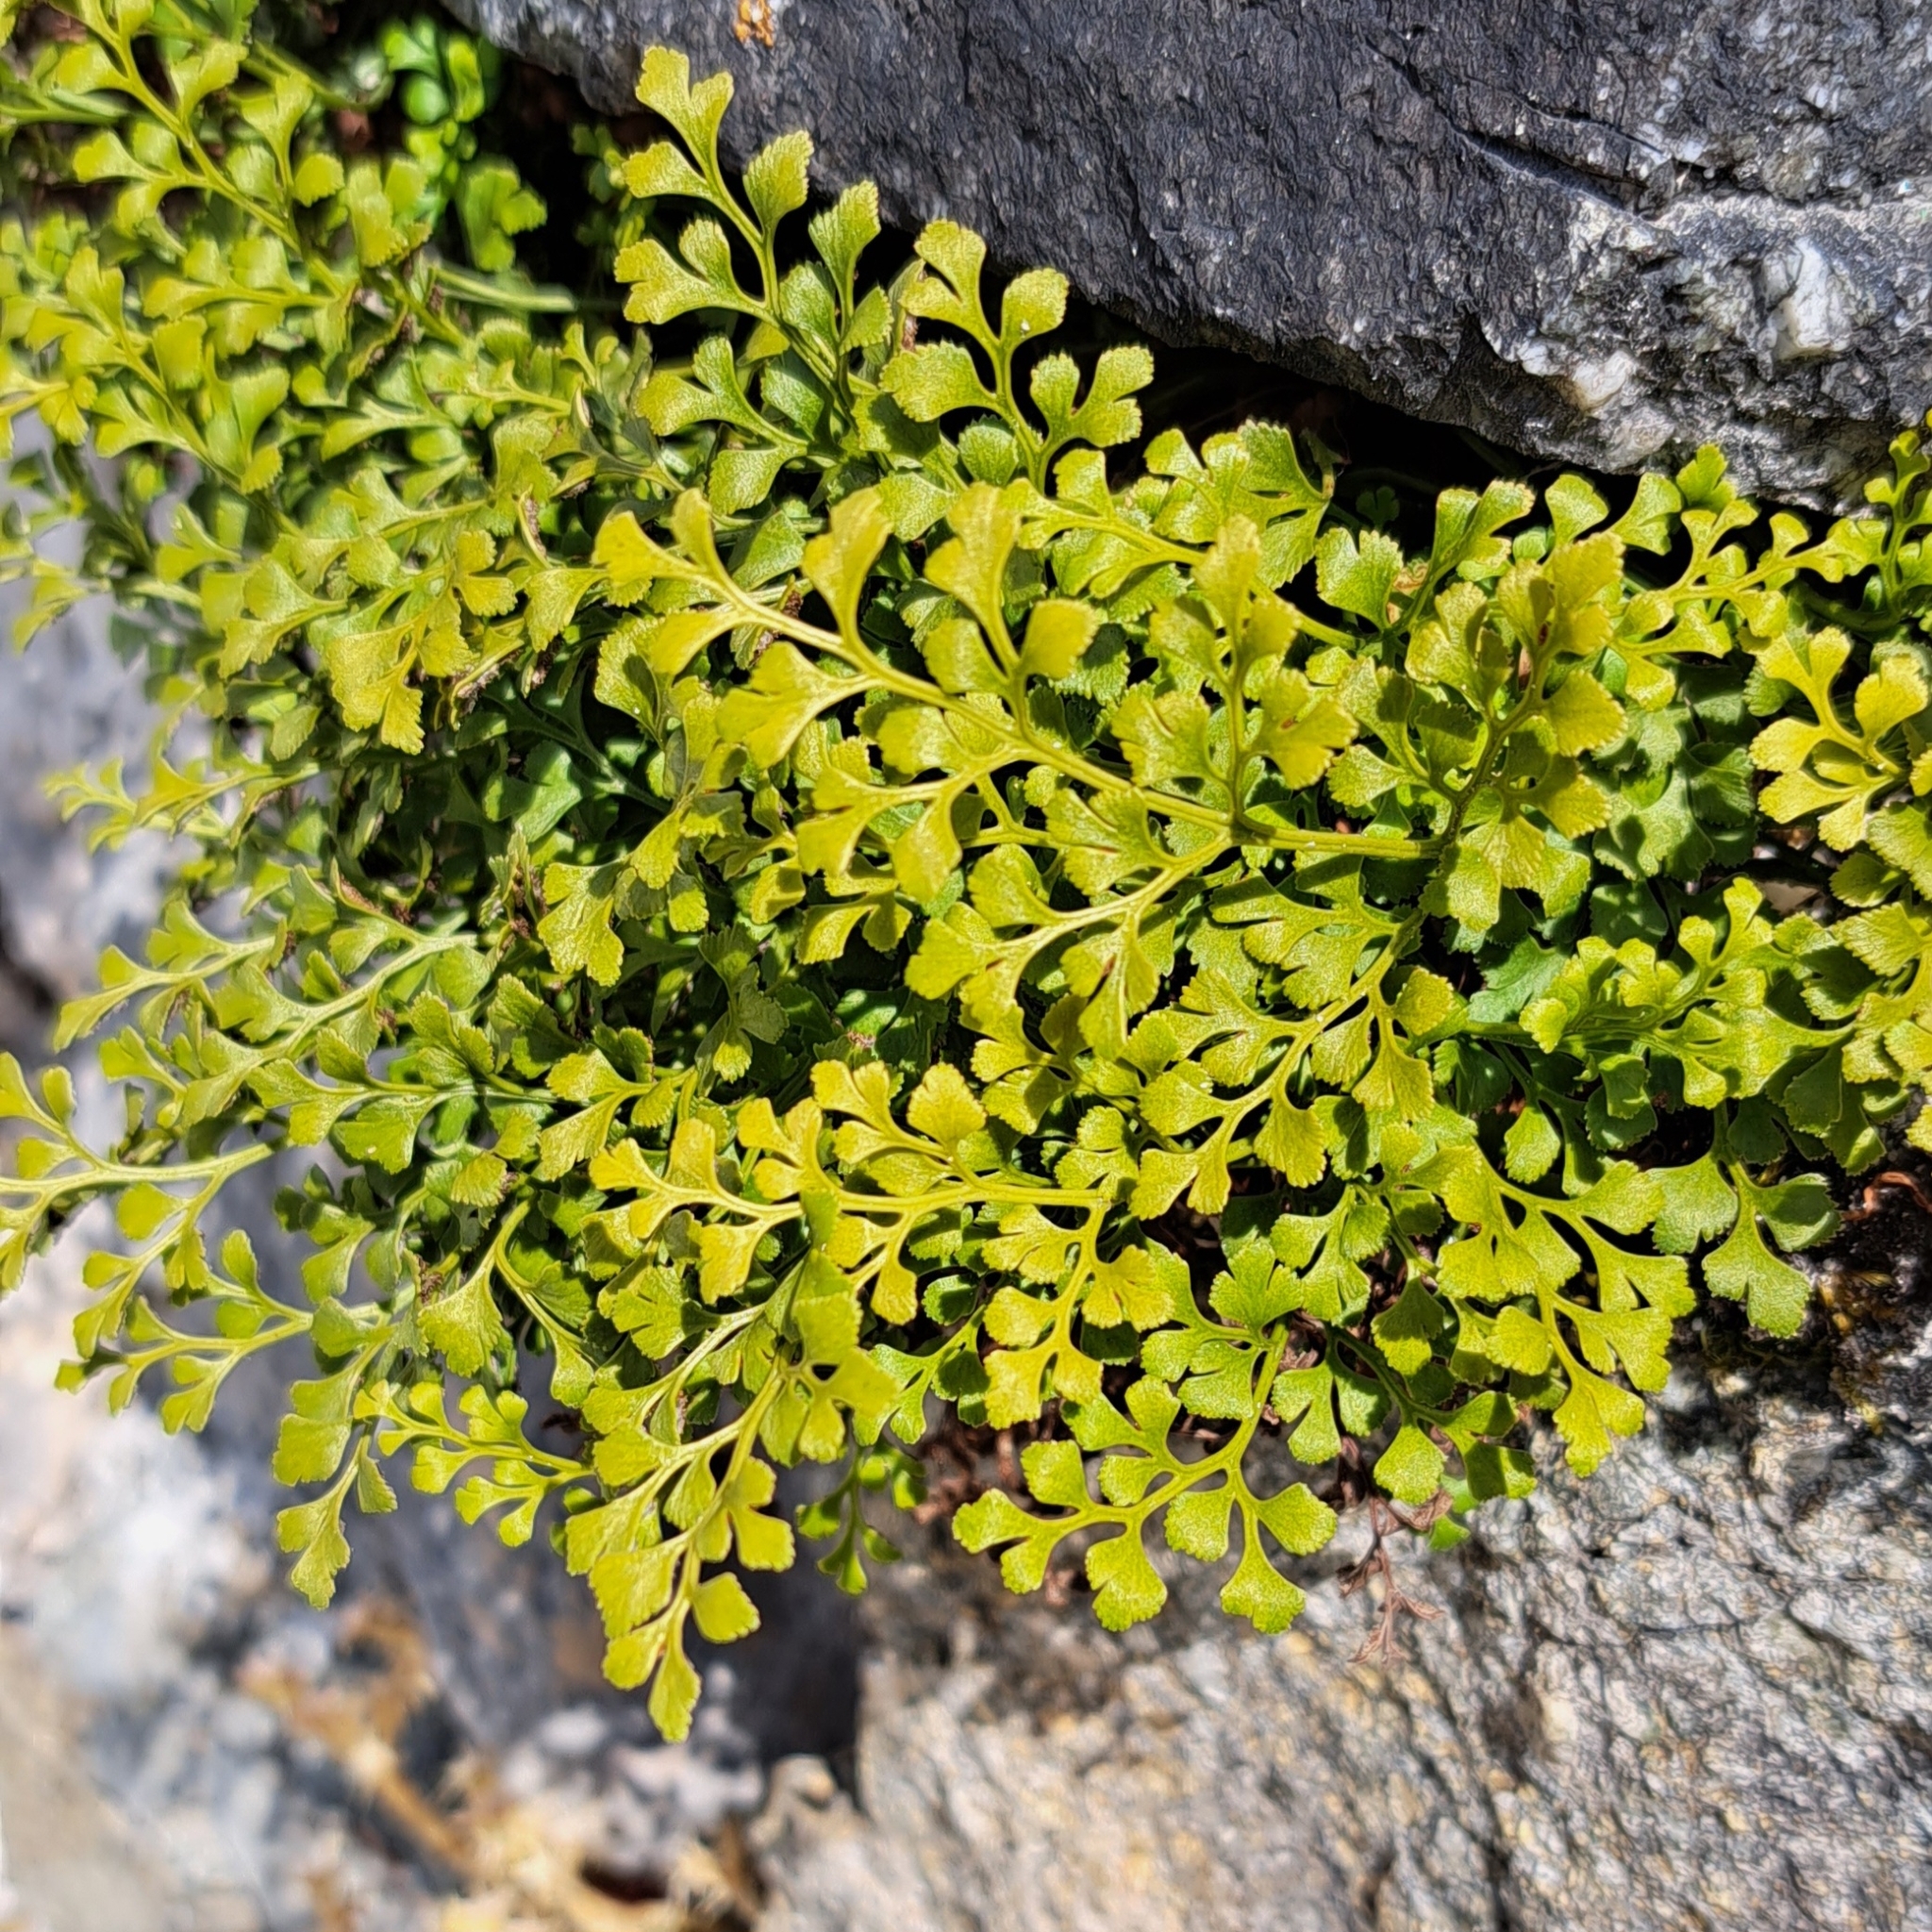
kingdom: Plantae
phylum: Tracheophyta
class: Polypodiopsida
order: Polypodiales
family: Aspleniaceae
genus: Asplenium
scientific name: Asplenium ruta-muraria
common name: Wall-rue
